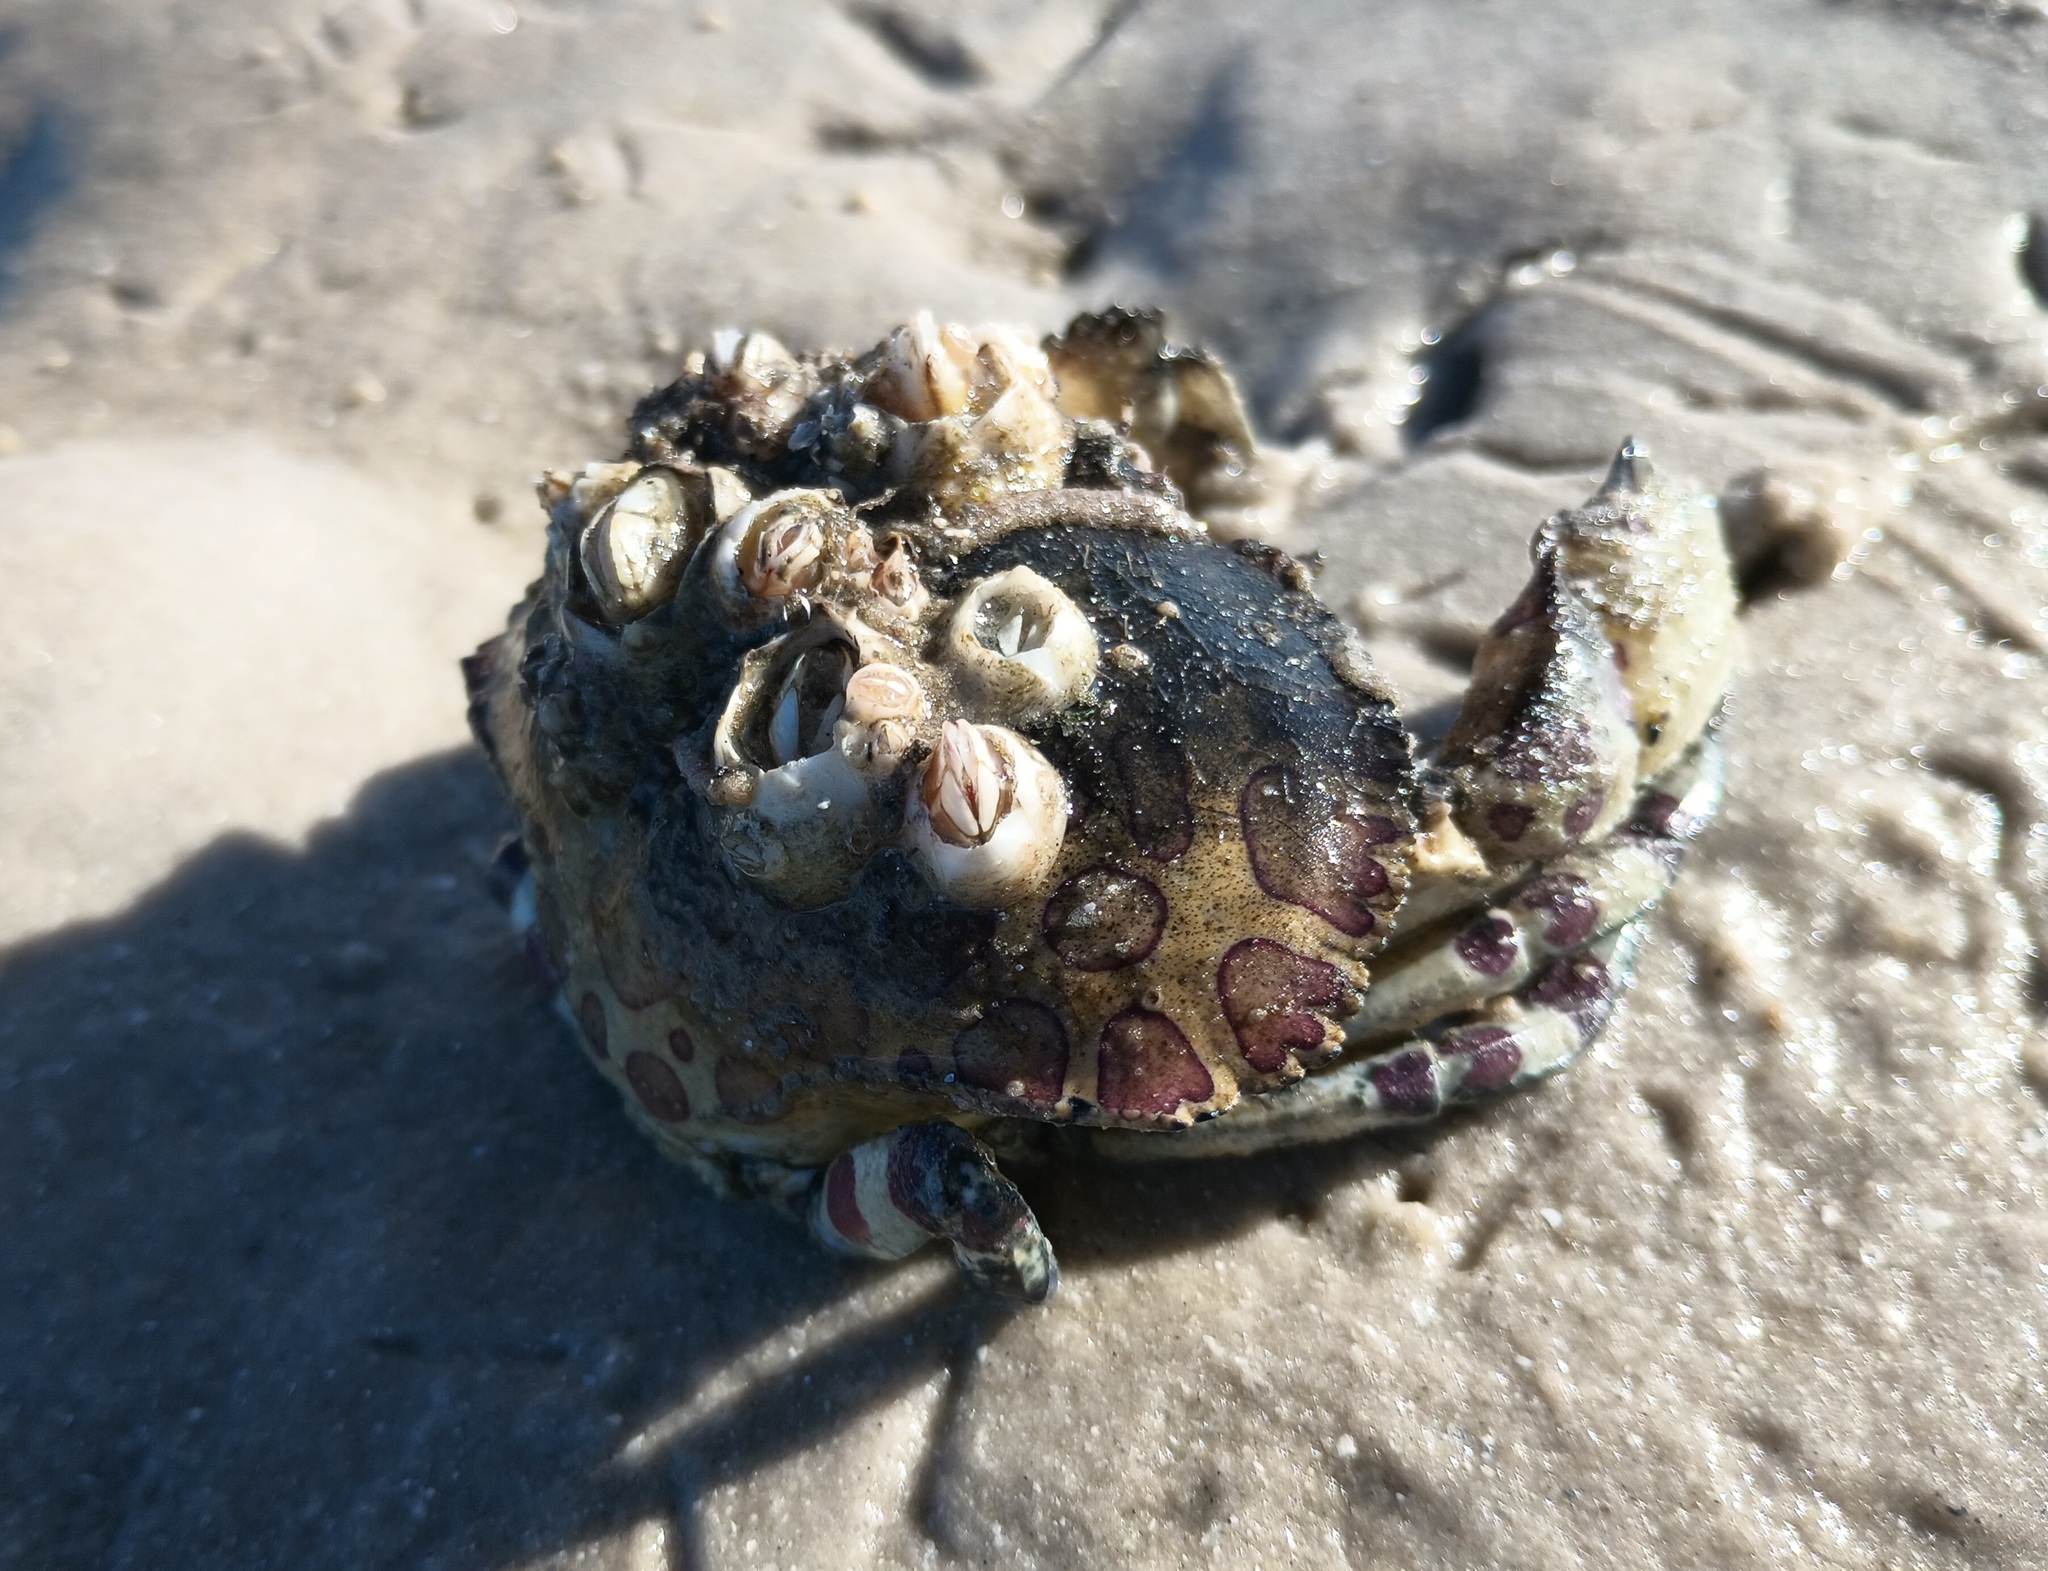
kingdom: Animalia
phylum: Arthropoda
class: Malacostraca
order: Decapoda
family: Aethridae
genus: Hepatus
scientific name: Hepatus epheliticus
